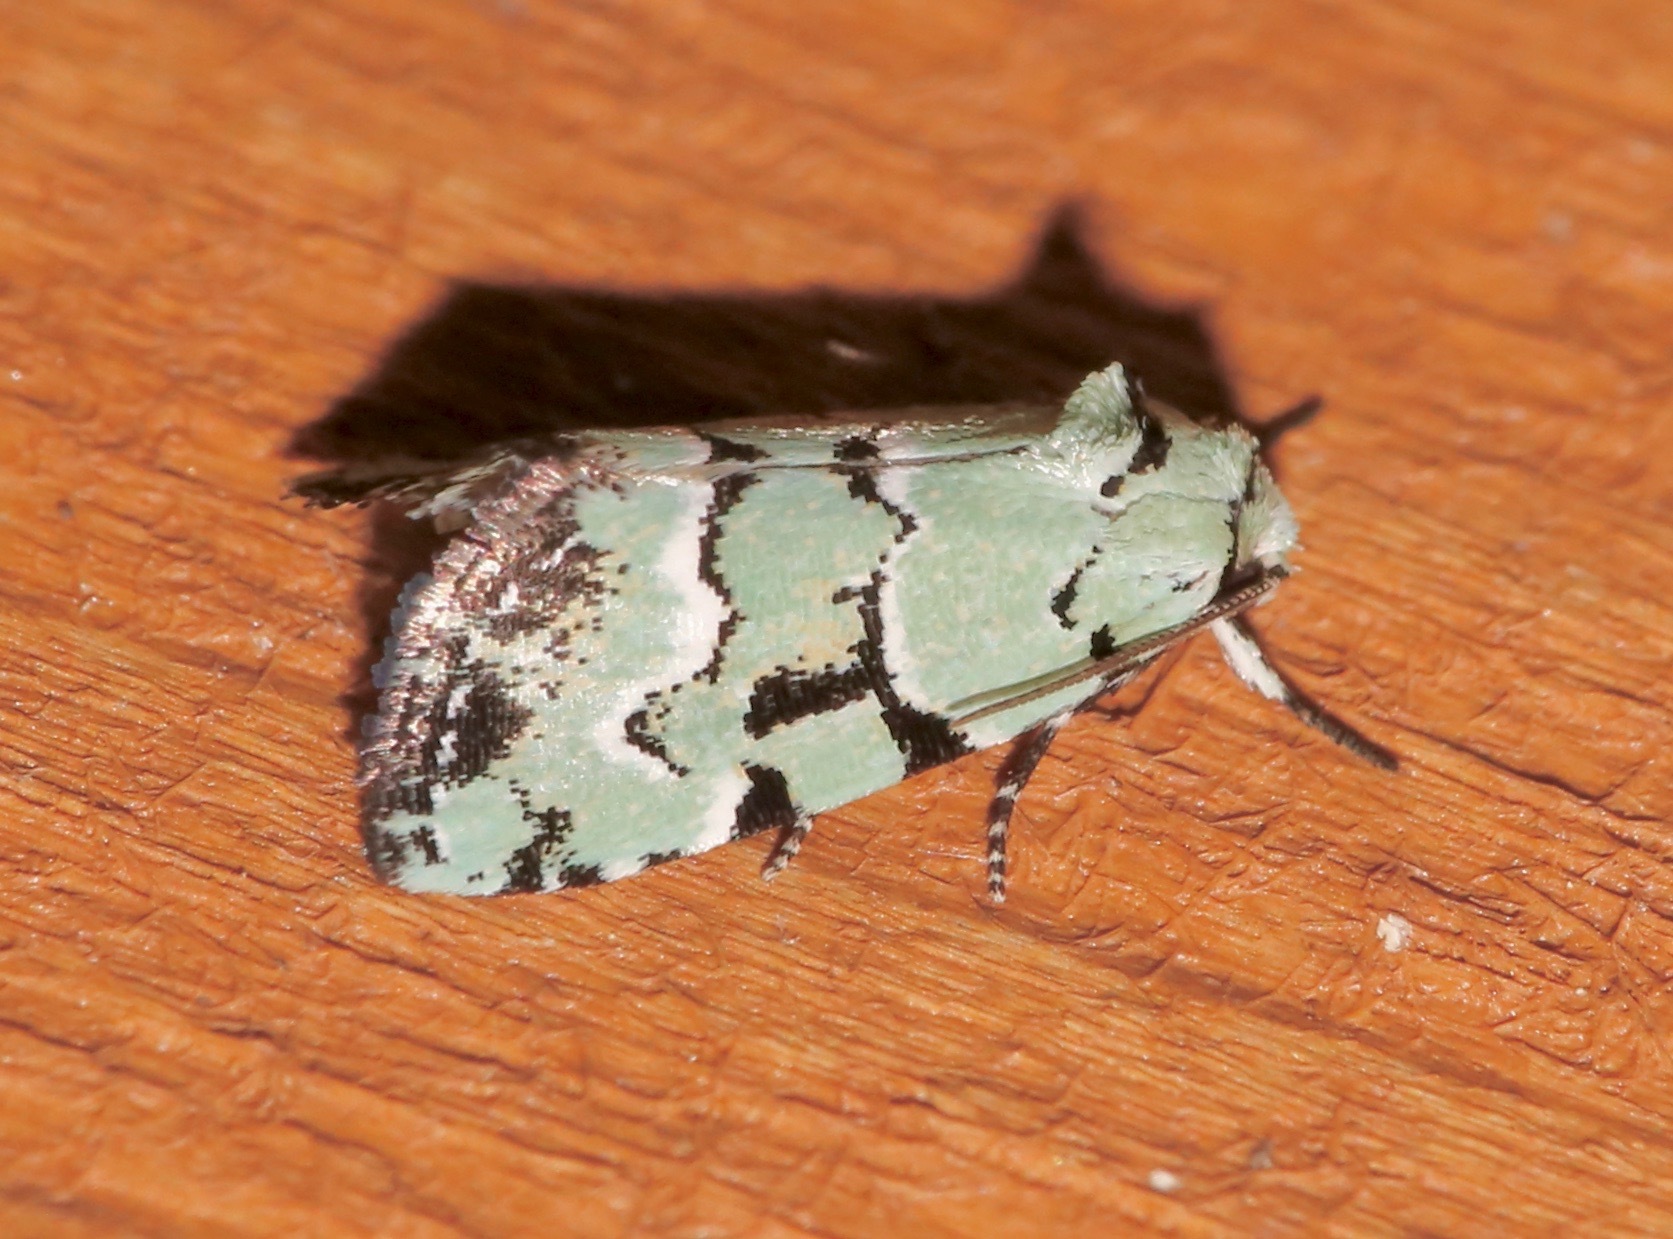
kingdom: Animalia
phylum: Arthropoda
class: Insecta
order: Lepidoptera
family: Noctuidae
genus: Elaphria
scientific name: Elaphria cyanympha
